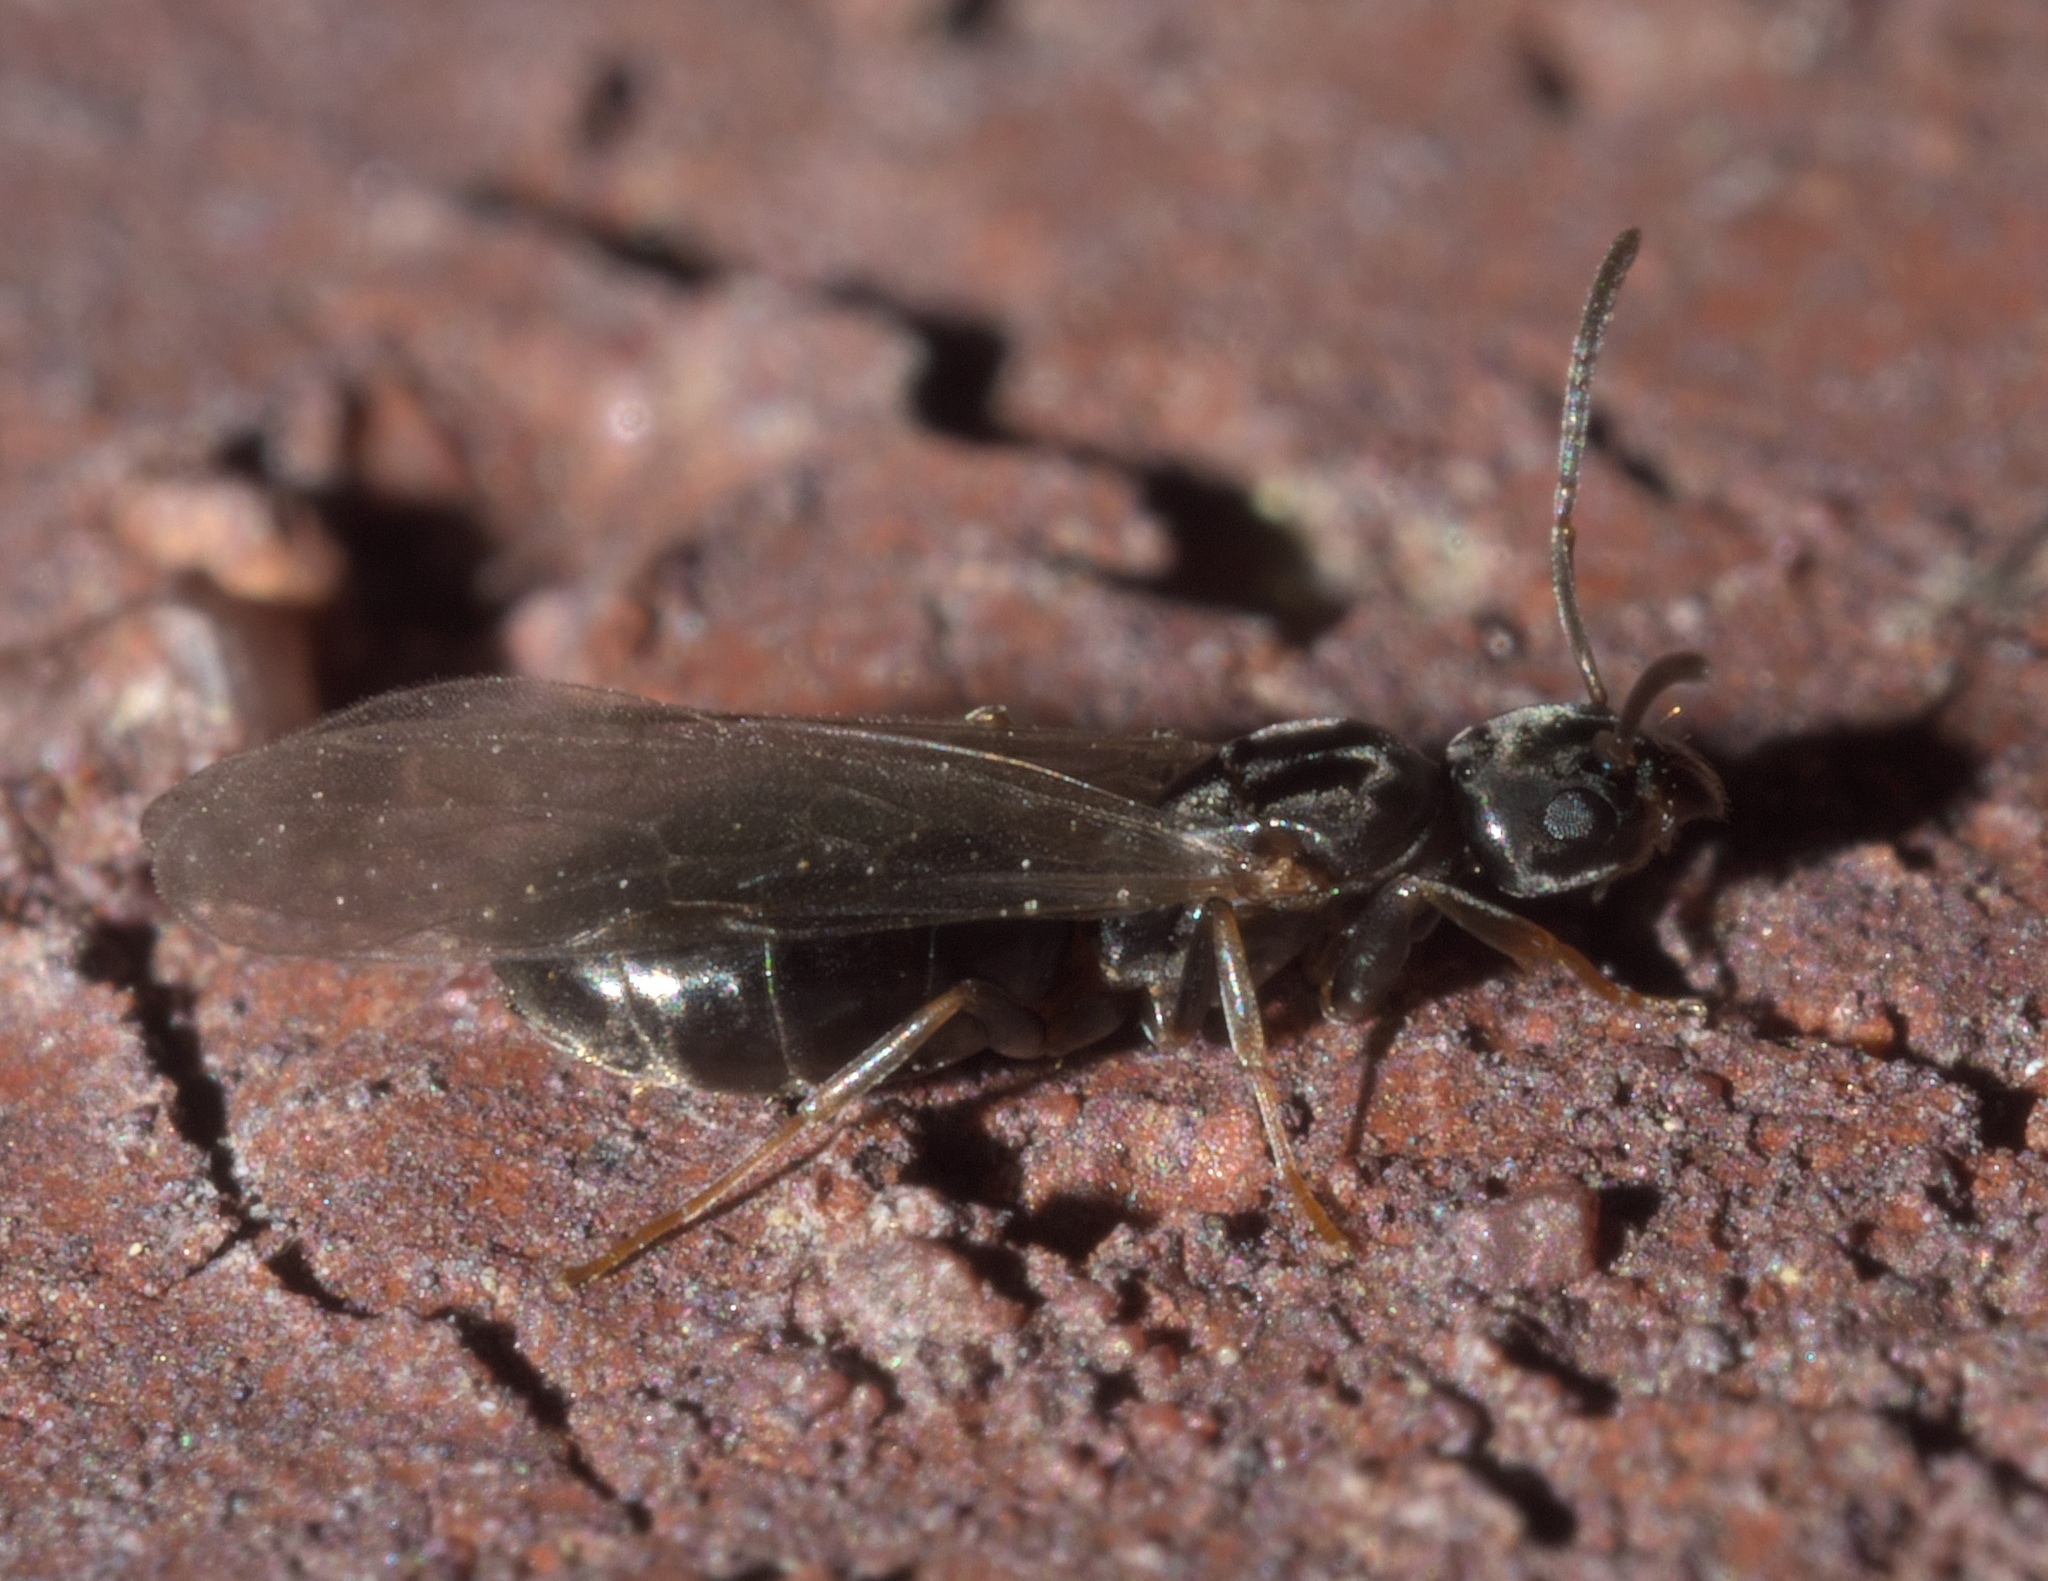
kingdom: Animalia
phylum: Arthropoda
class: Insecta
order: Hymenoptera
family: Formicidae
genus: Tapinoma
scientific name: Tapinoma sessile
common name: Odorous house ant
